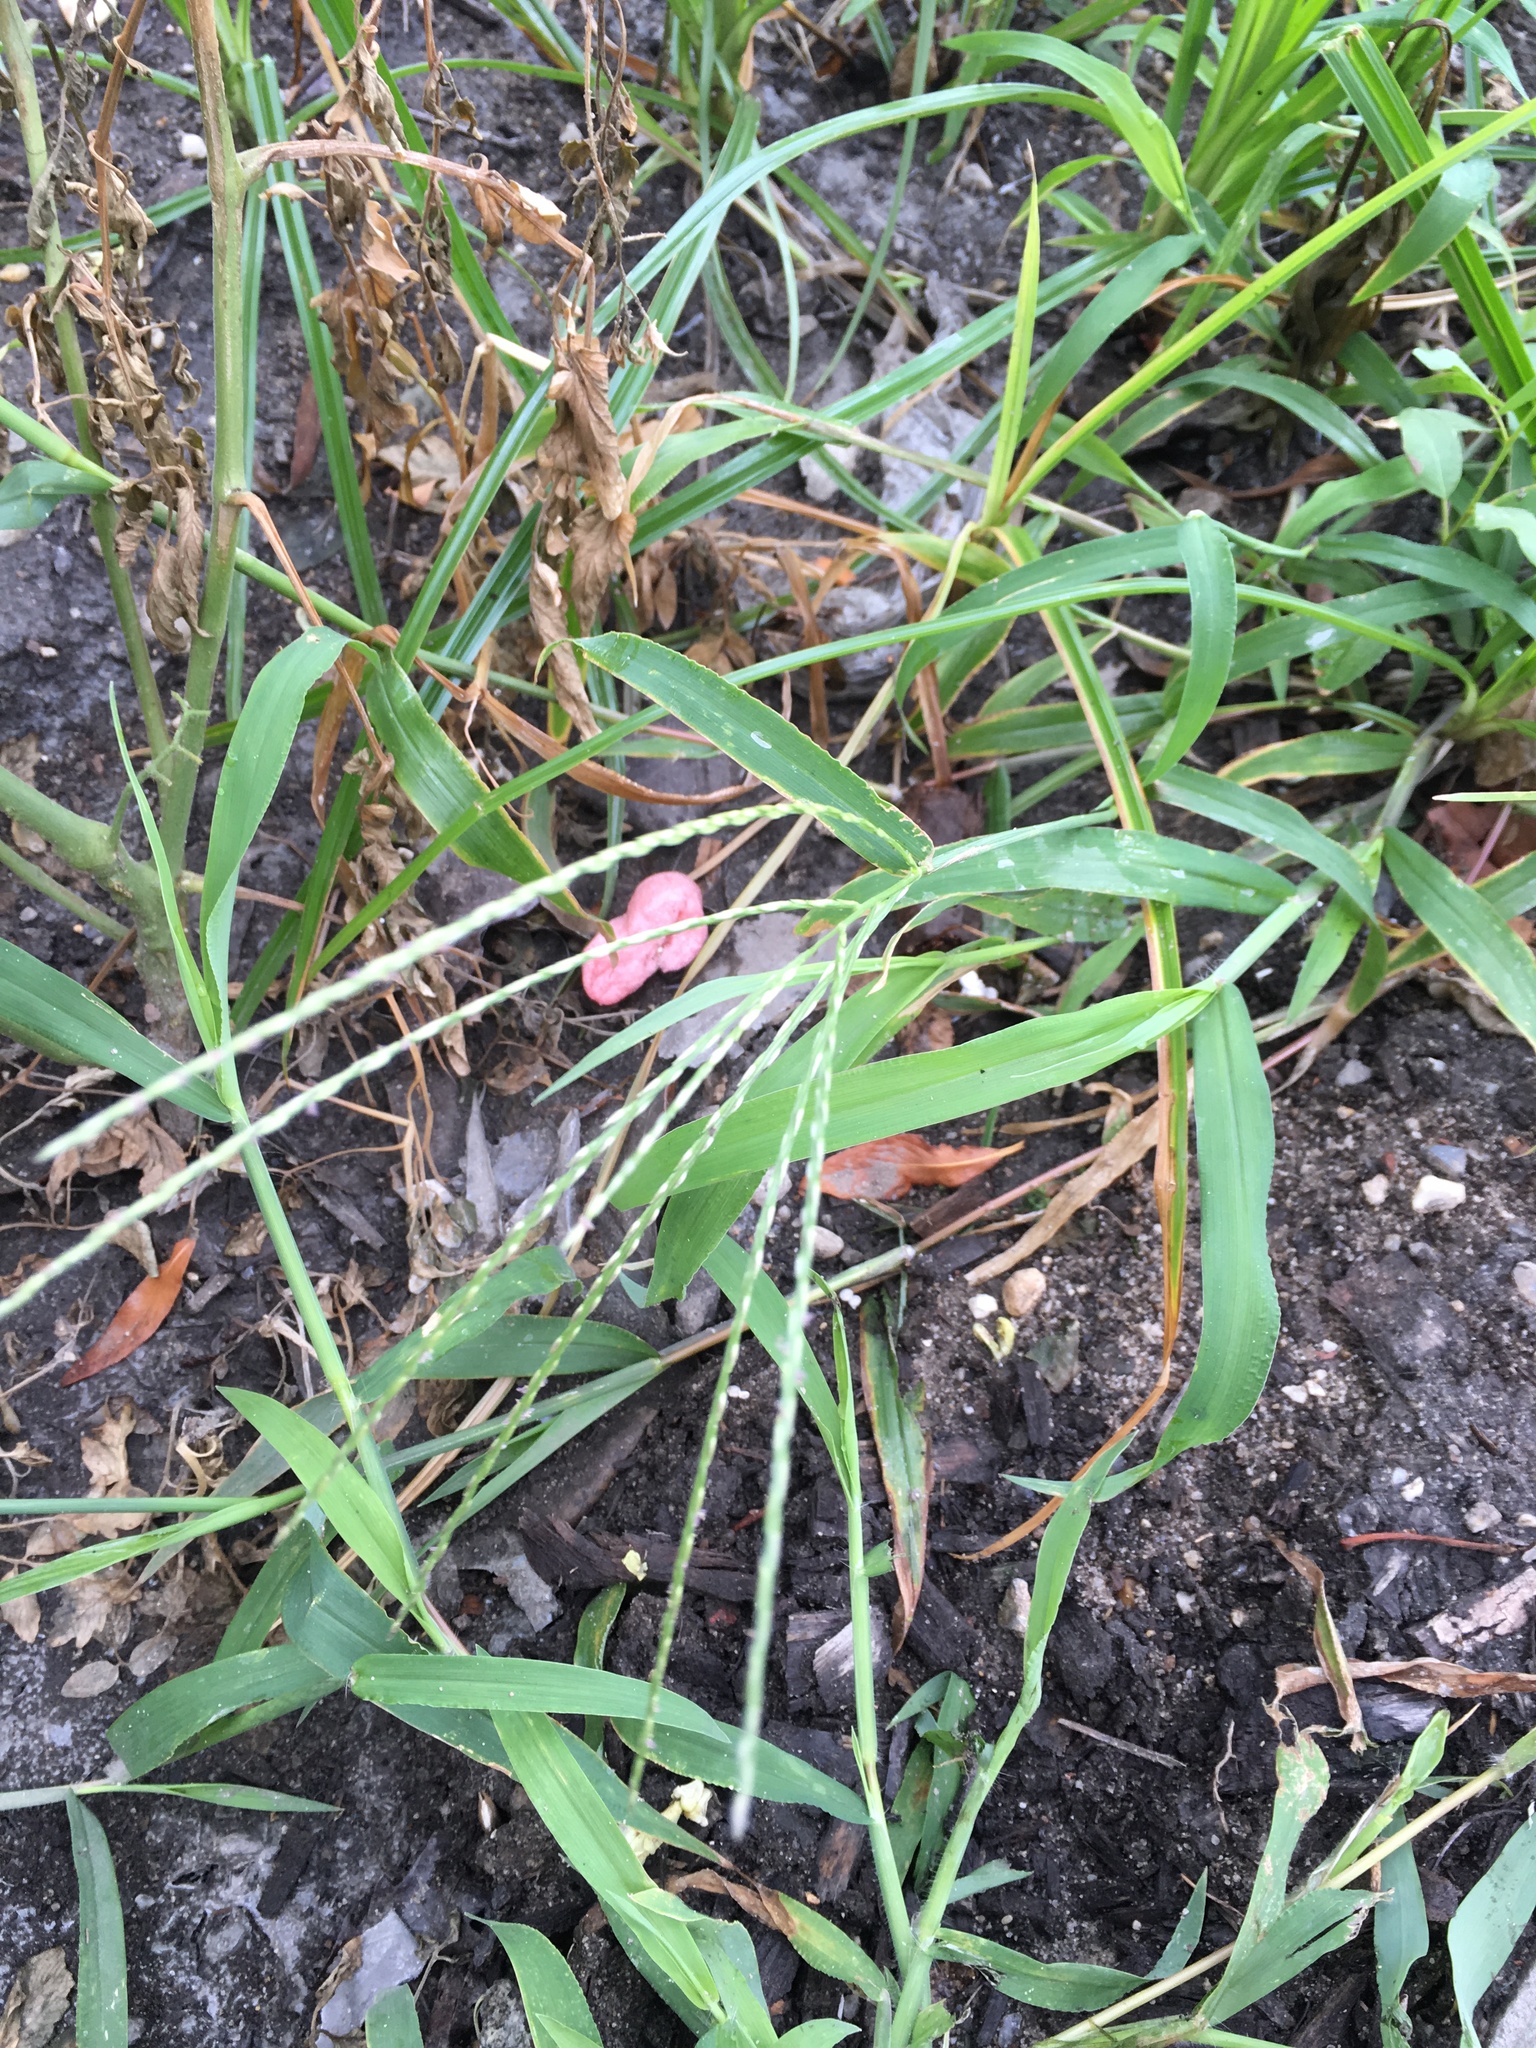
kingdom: Plantae
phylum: Tracheophyta
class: Liliopsida
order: Poales
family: Poaceae
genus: Digitaria
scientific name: Digitaria ischaemum
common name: Smooth crabgrass
